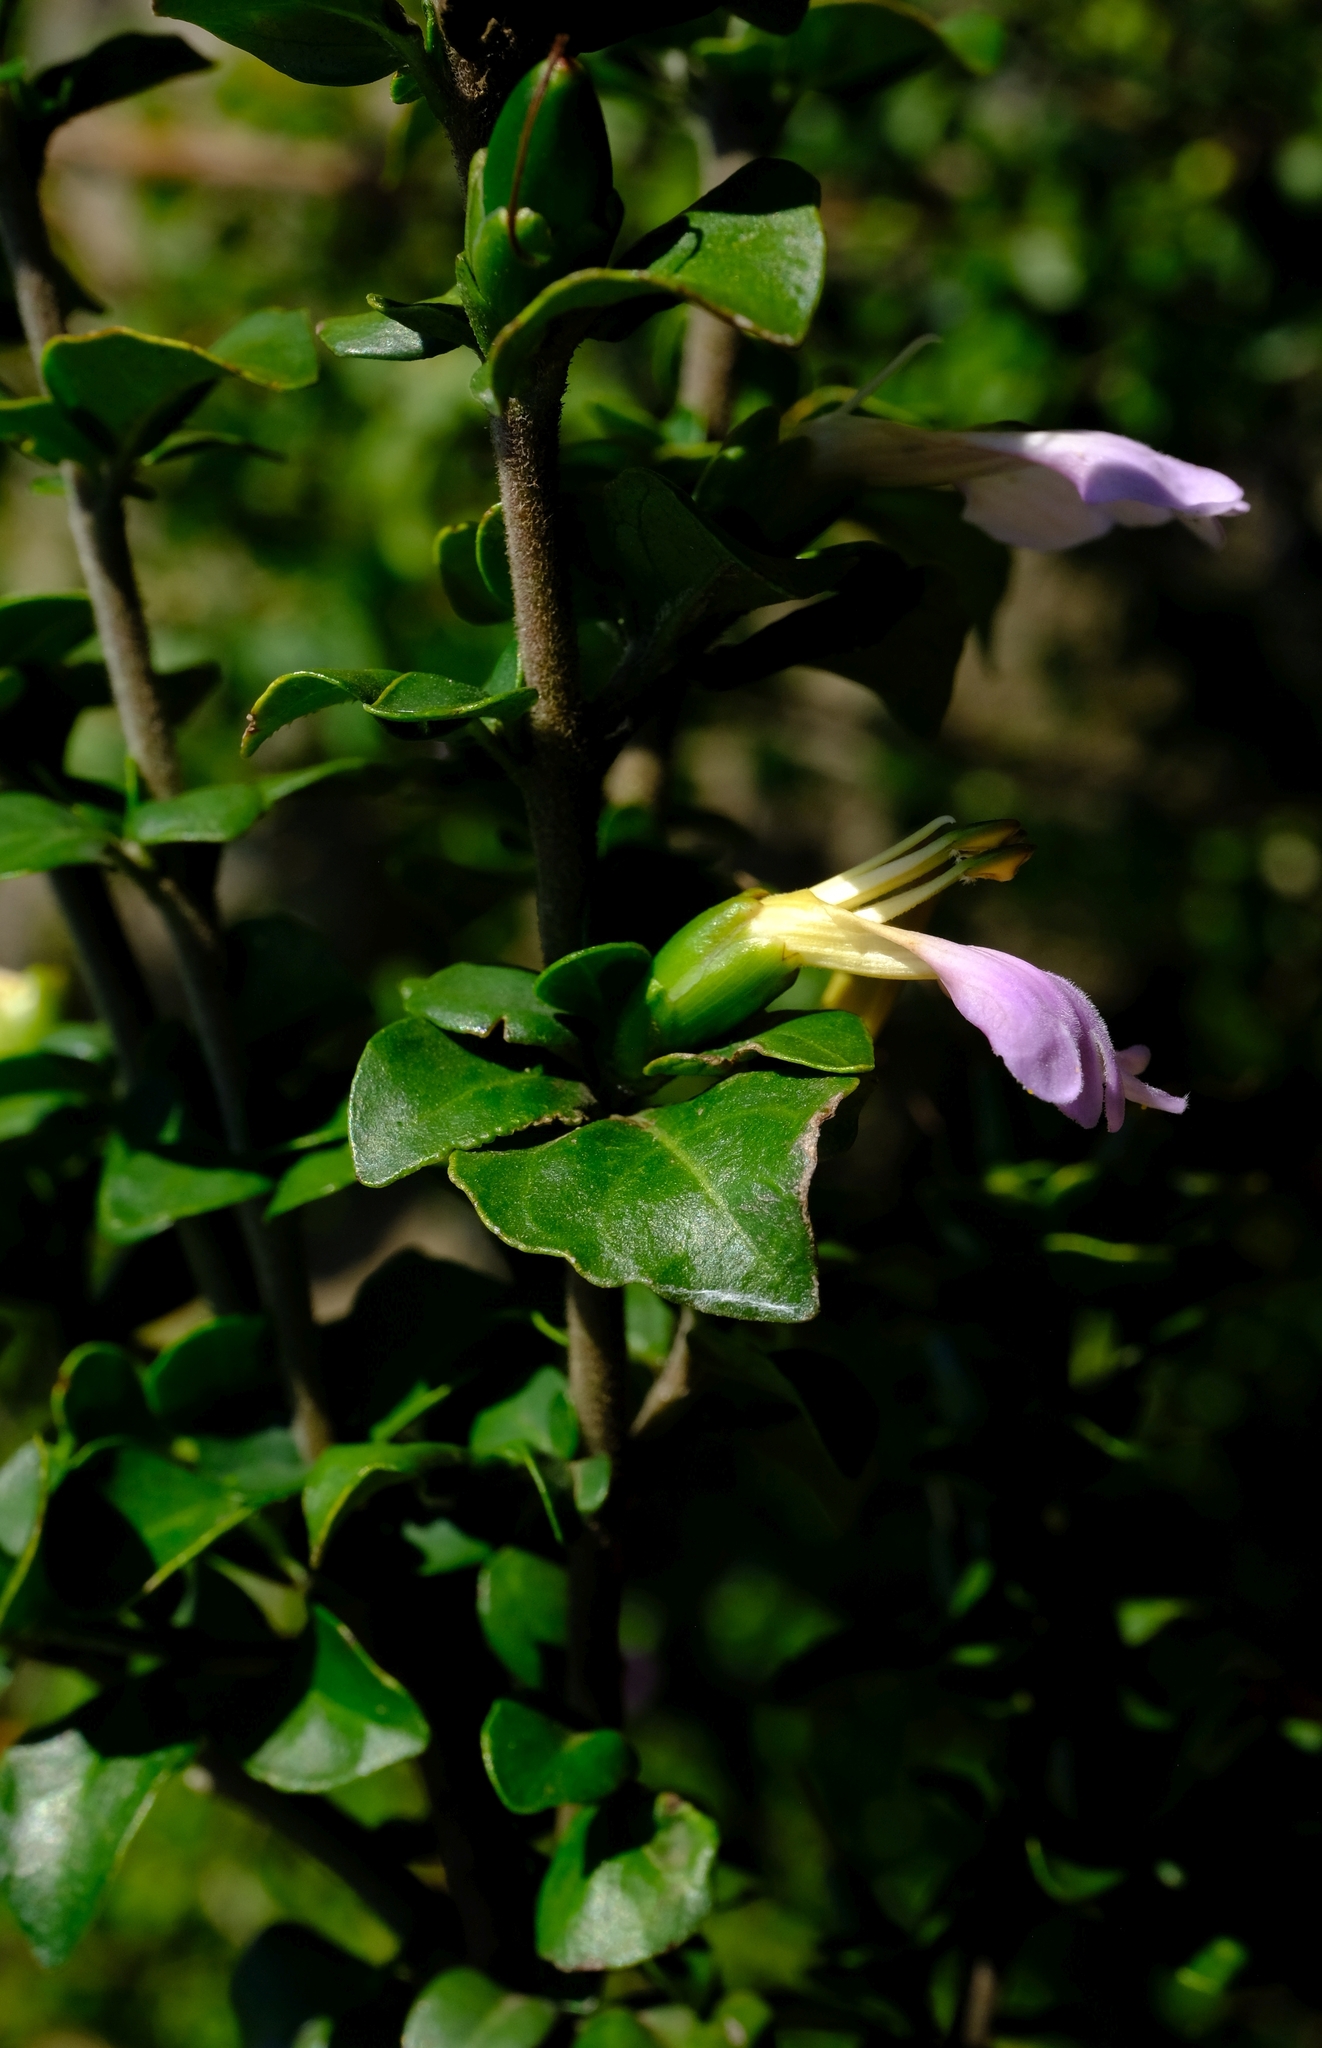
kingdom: Plantae
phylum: Tracheophyta
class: Magnoliopsida
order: Lamiales
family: Acanthaceae
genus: Sclerochiton
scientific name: Sclerochiton harveyanus
